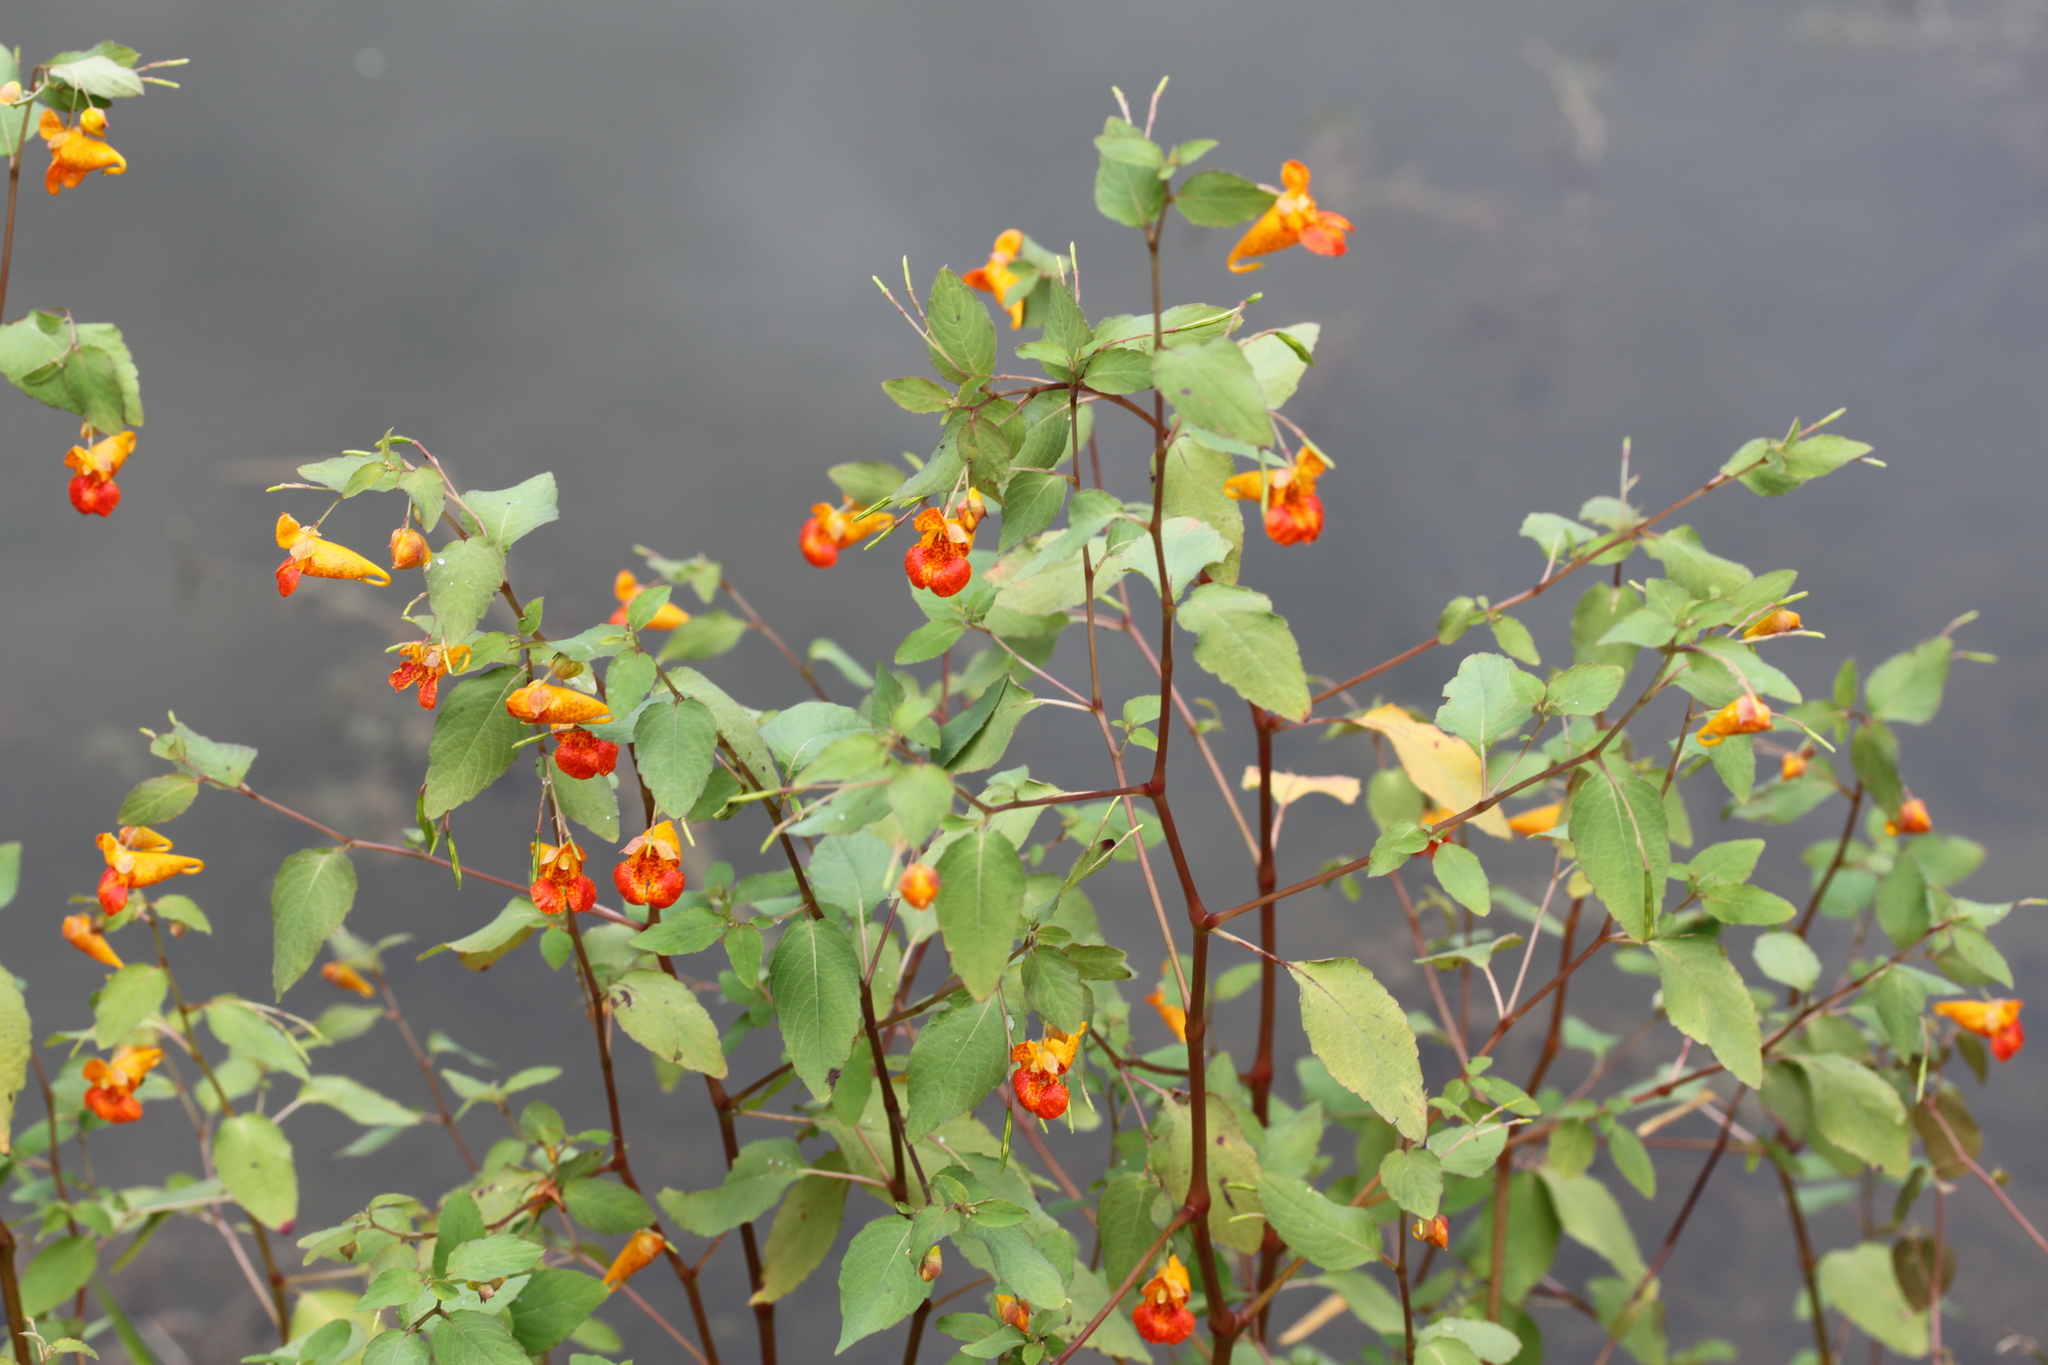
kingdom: Plantae
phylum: Tracheophyta
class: Magnoliopsida
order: Ericales
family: Balsaminaceae
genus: Impatiens
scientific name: Impatiens capensis
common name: Orange balsam
